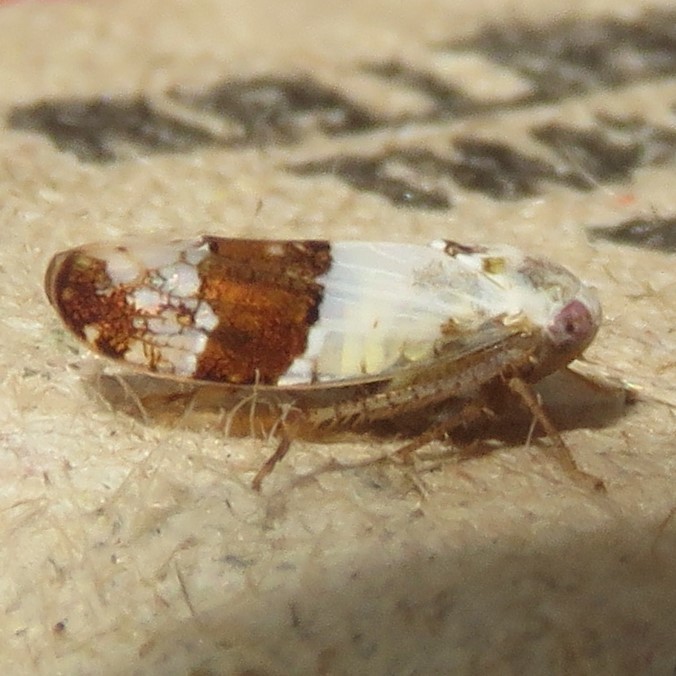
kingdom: Animalia
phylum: Arthropoda
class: Insecta
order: Hemiptera
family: Cicadellidae
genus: Norvellina
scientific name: Norvellina seminuda
